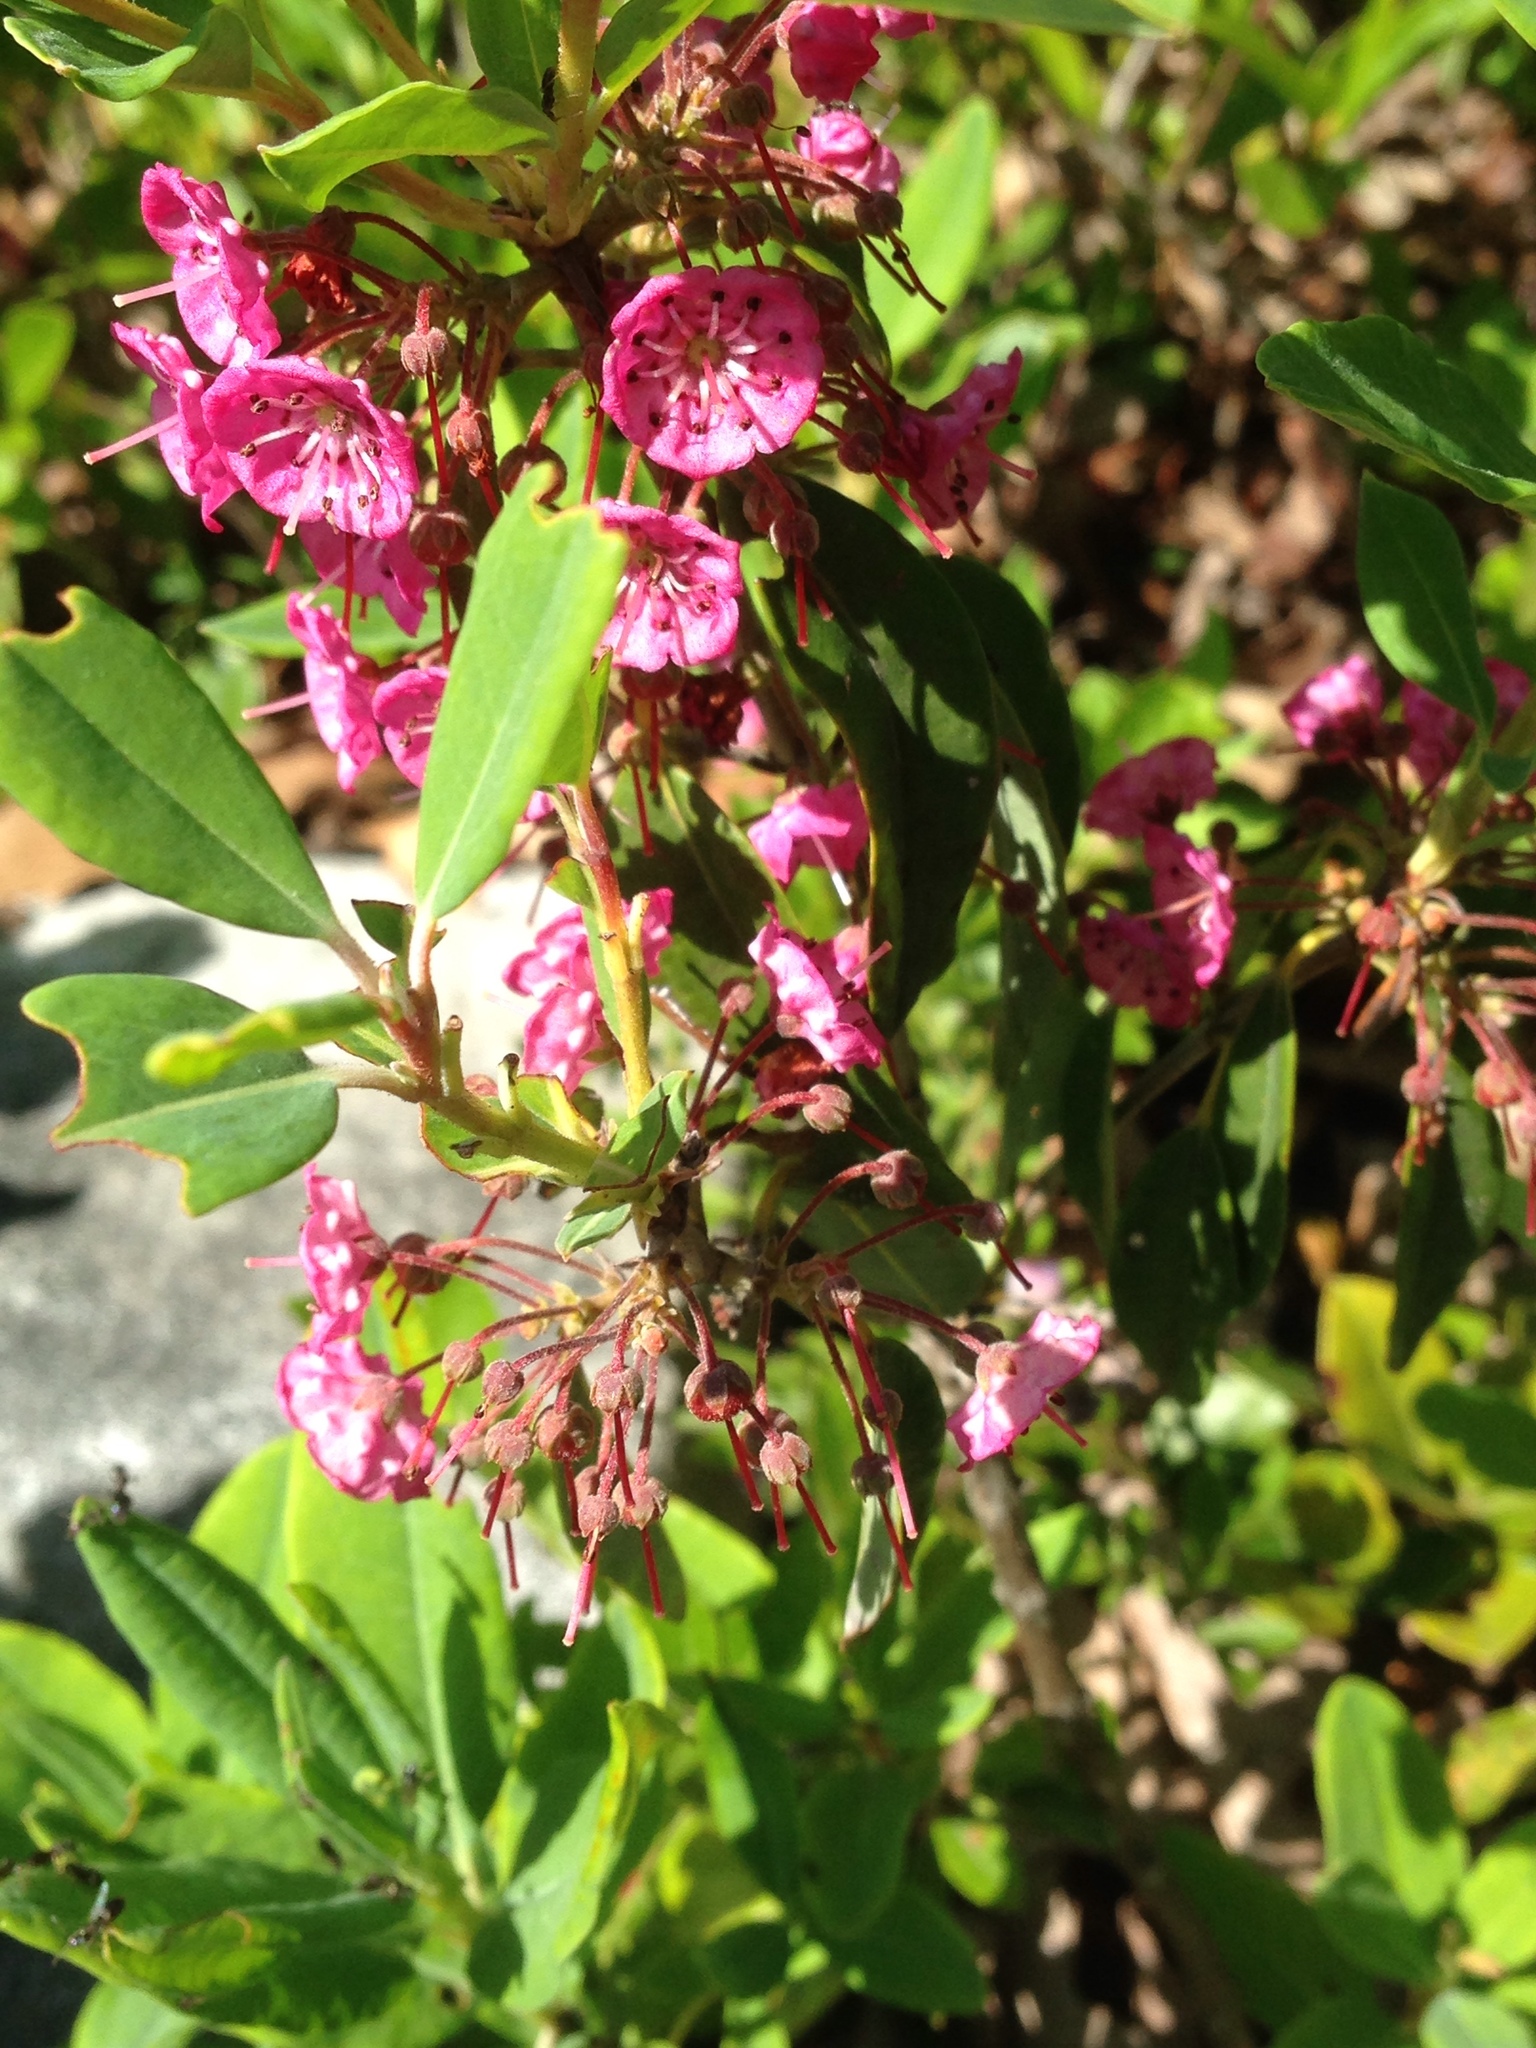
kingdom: Plantae
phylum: Tracheophyta
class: Magnoliopsida
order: Ericales
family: Ericaceae
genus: Kalmia
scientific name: Kalmia angustifolia
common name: Sheep-laurel
